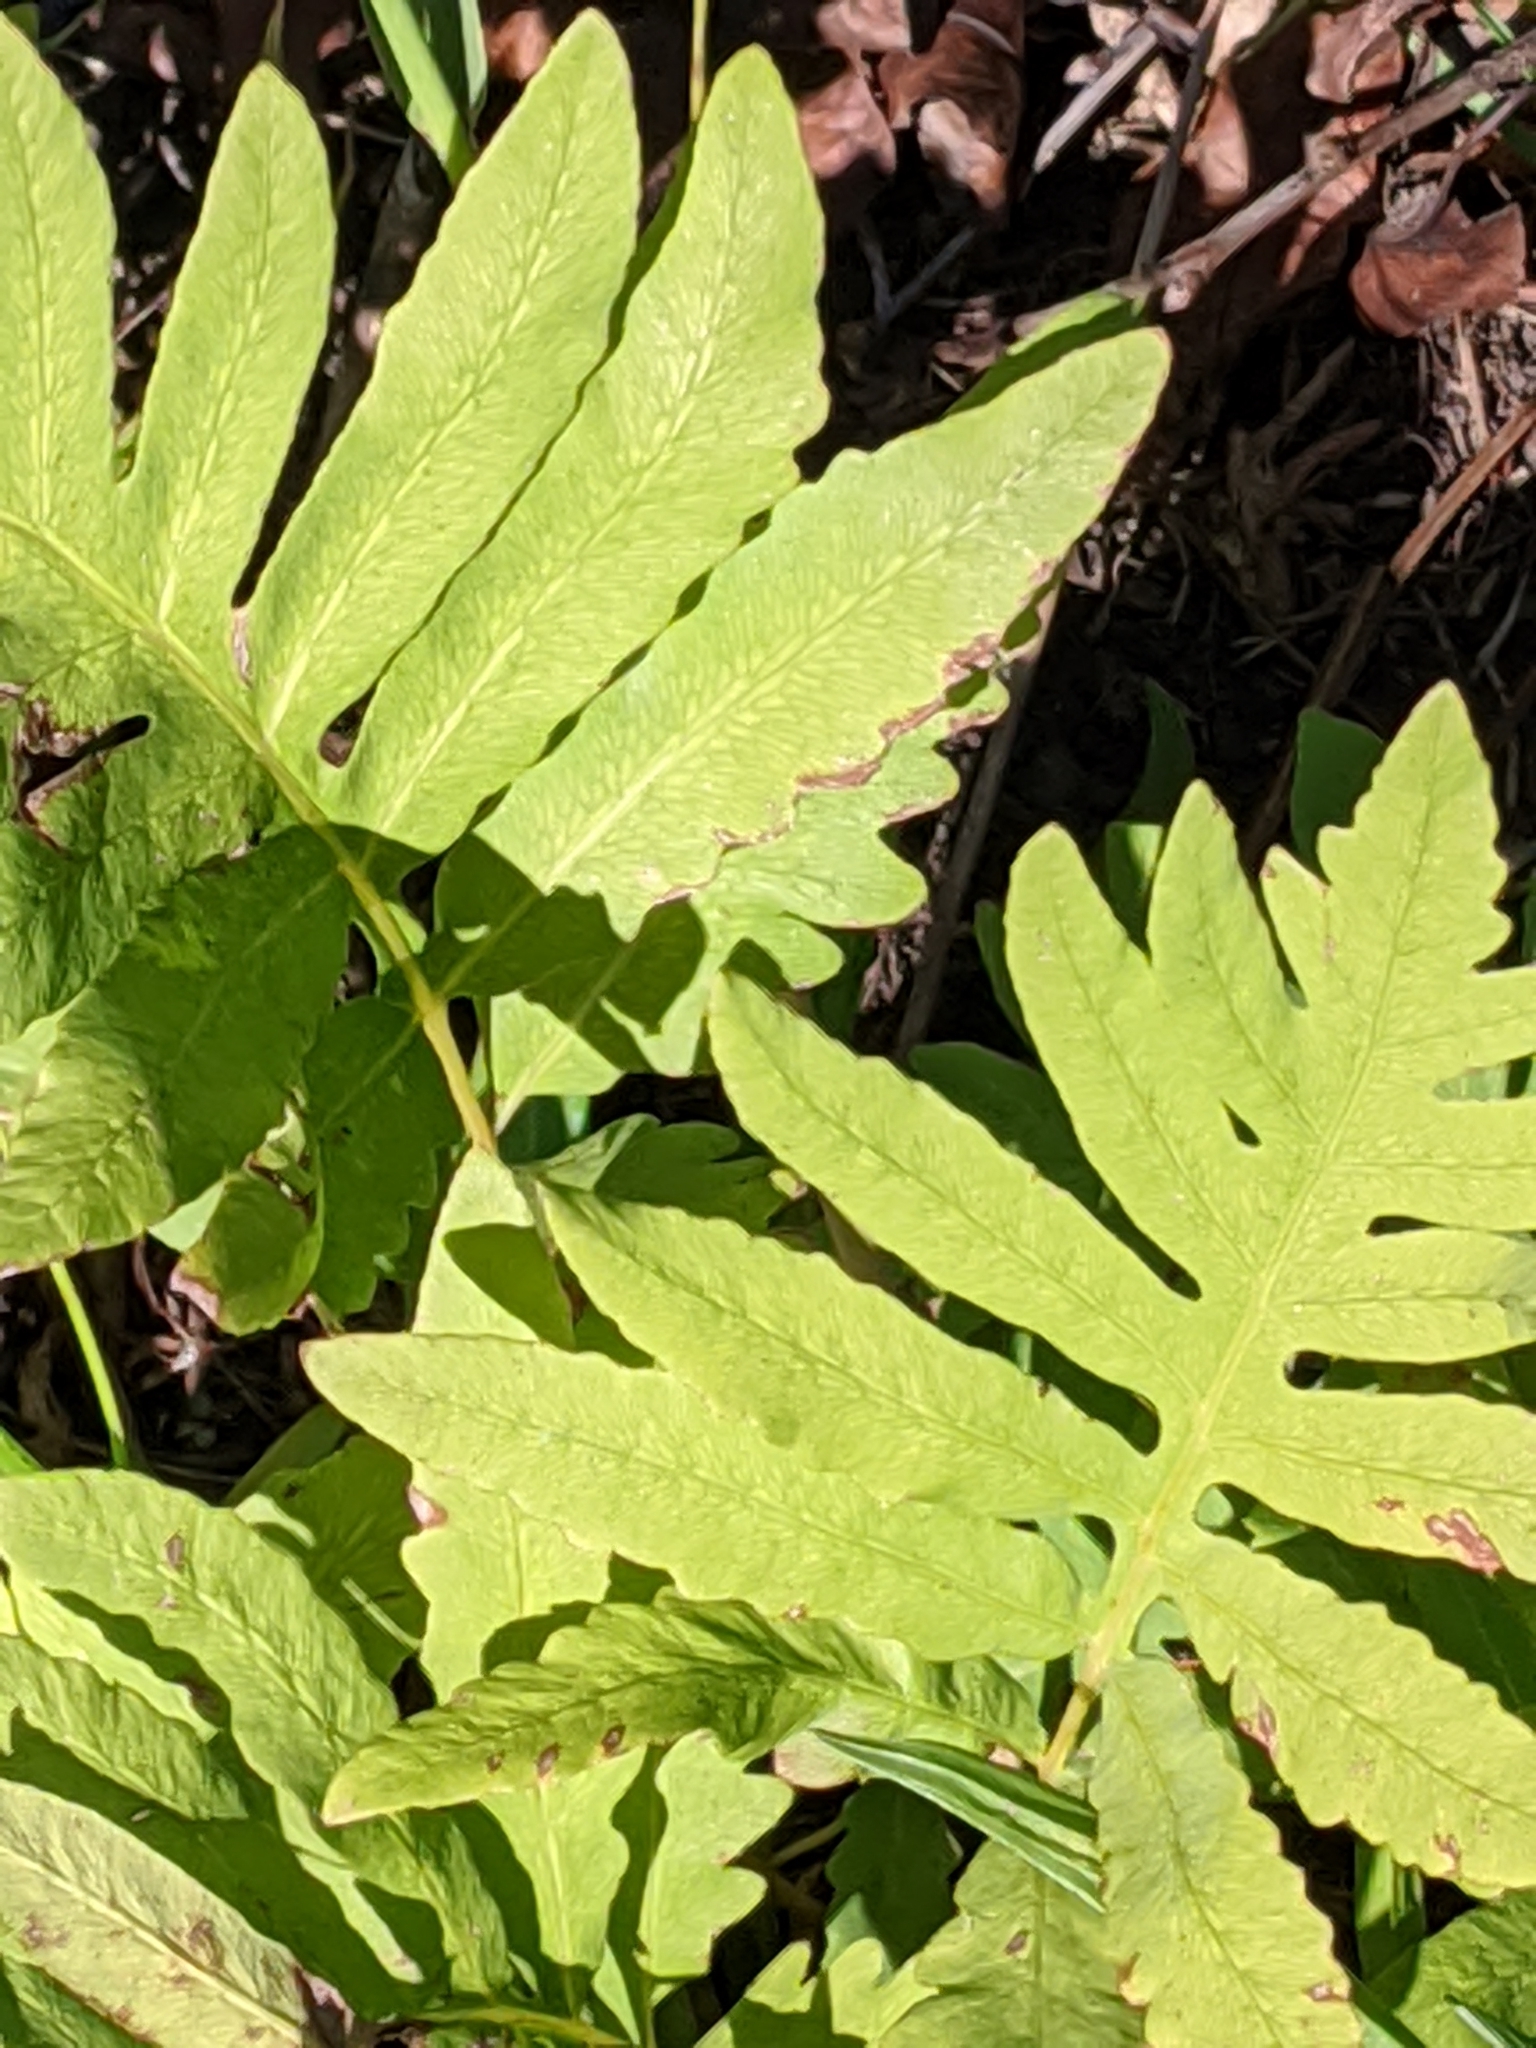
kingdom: Plantae
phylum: Tracheophyta
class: Polypodiopsida
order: Polypodiales
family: Onocleaceae
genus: Onoclea
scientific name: Onoclea sensibilis
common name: Sensitive fern
